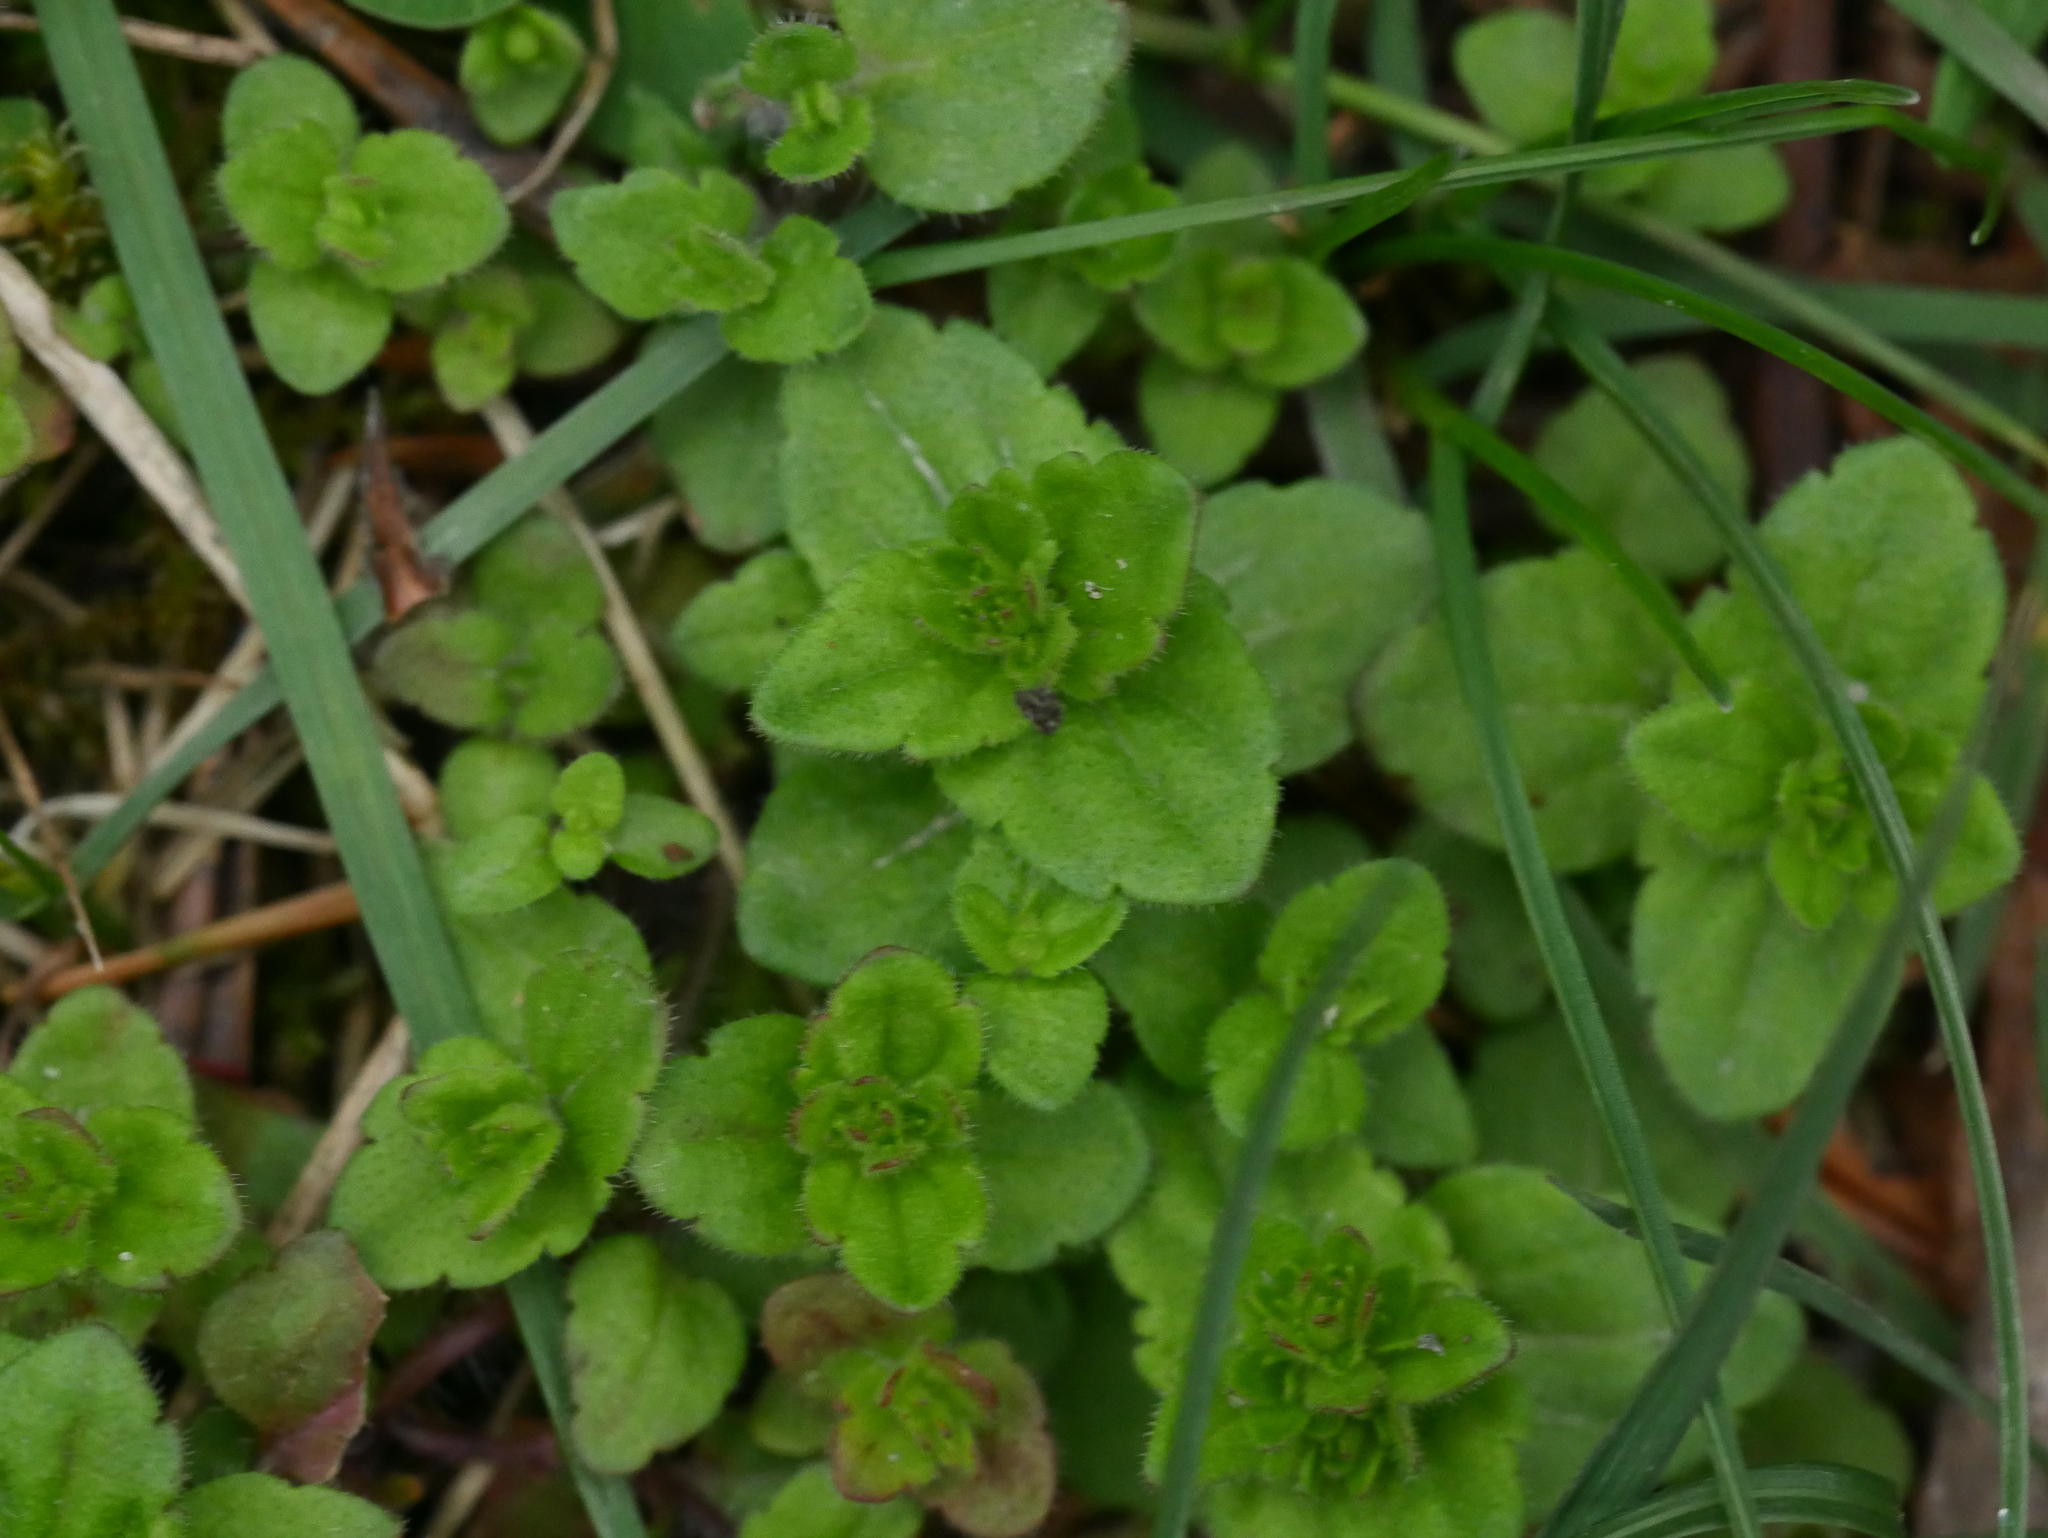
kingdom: Plantae
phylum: Tracheophyta
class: Magnoliopsida
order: Lamiales
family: Plantaginaceae
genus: Veronica
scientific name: Veronica arvensis
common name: Corn speedwell
